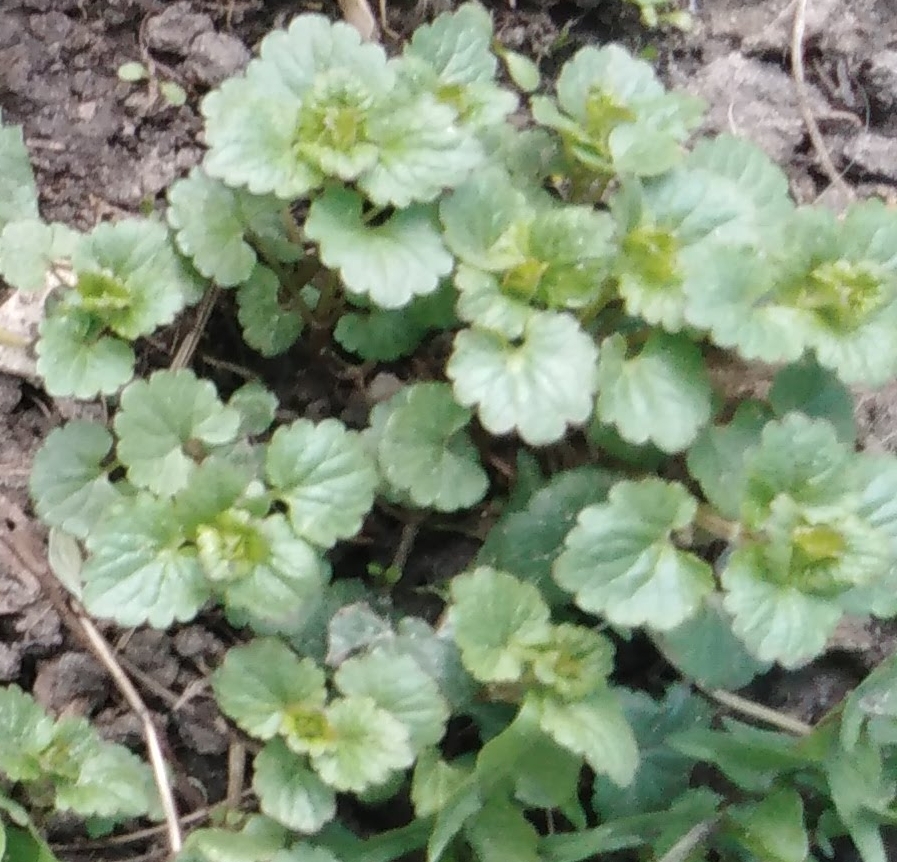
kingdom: Plantae
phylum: Tracheophyta
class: Magnoliopsida
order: Lamiales
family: Lamiaceae
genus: Glechoma
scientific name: Glechoma hederacea
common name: Ground ivy
